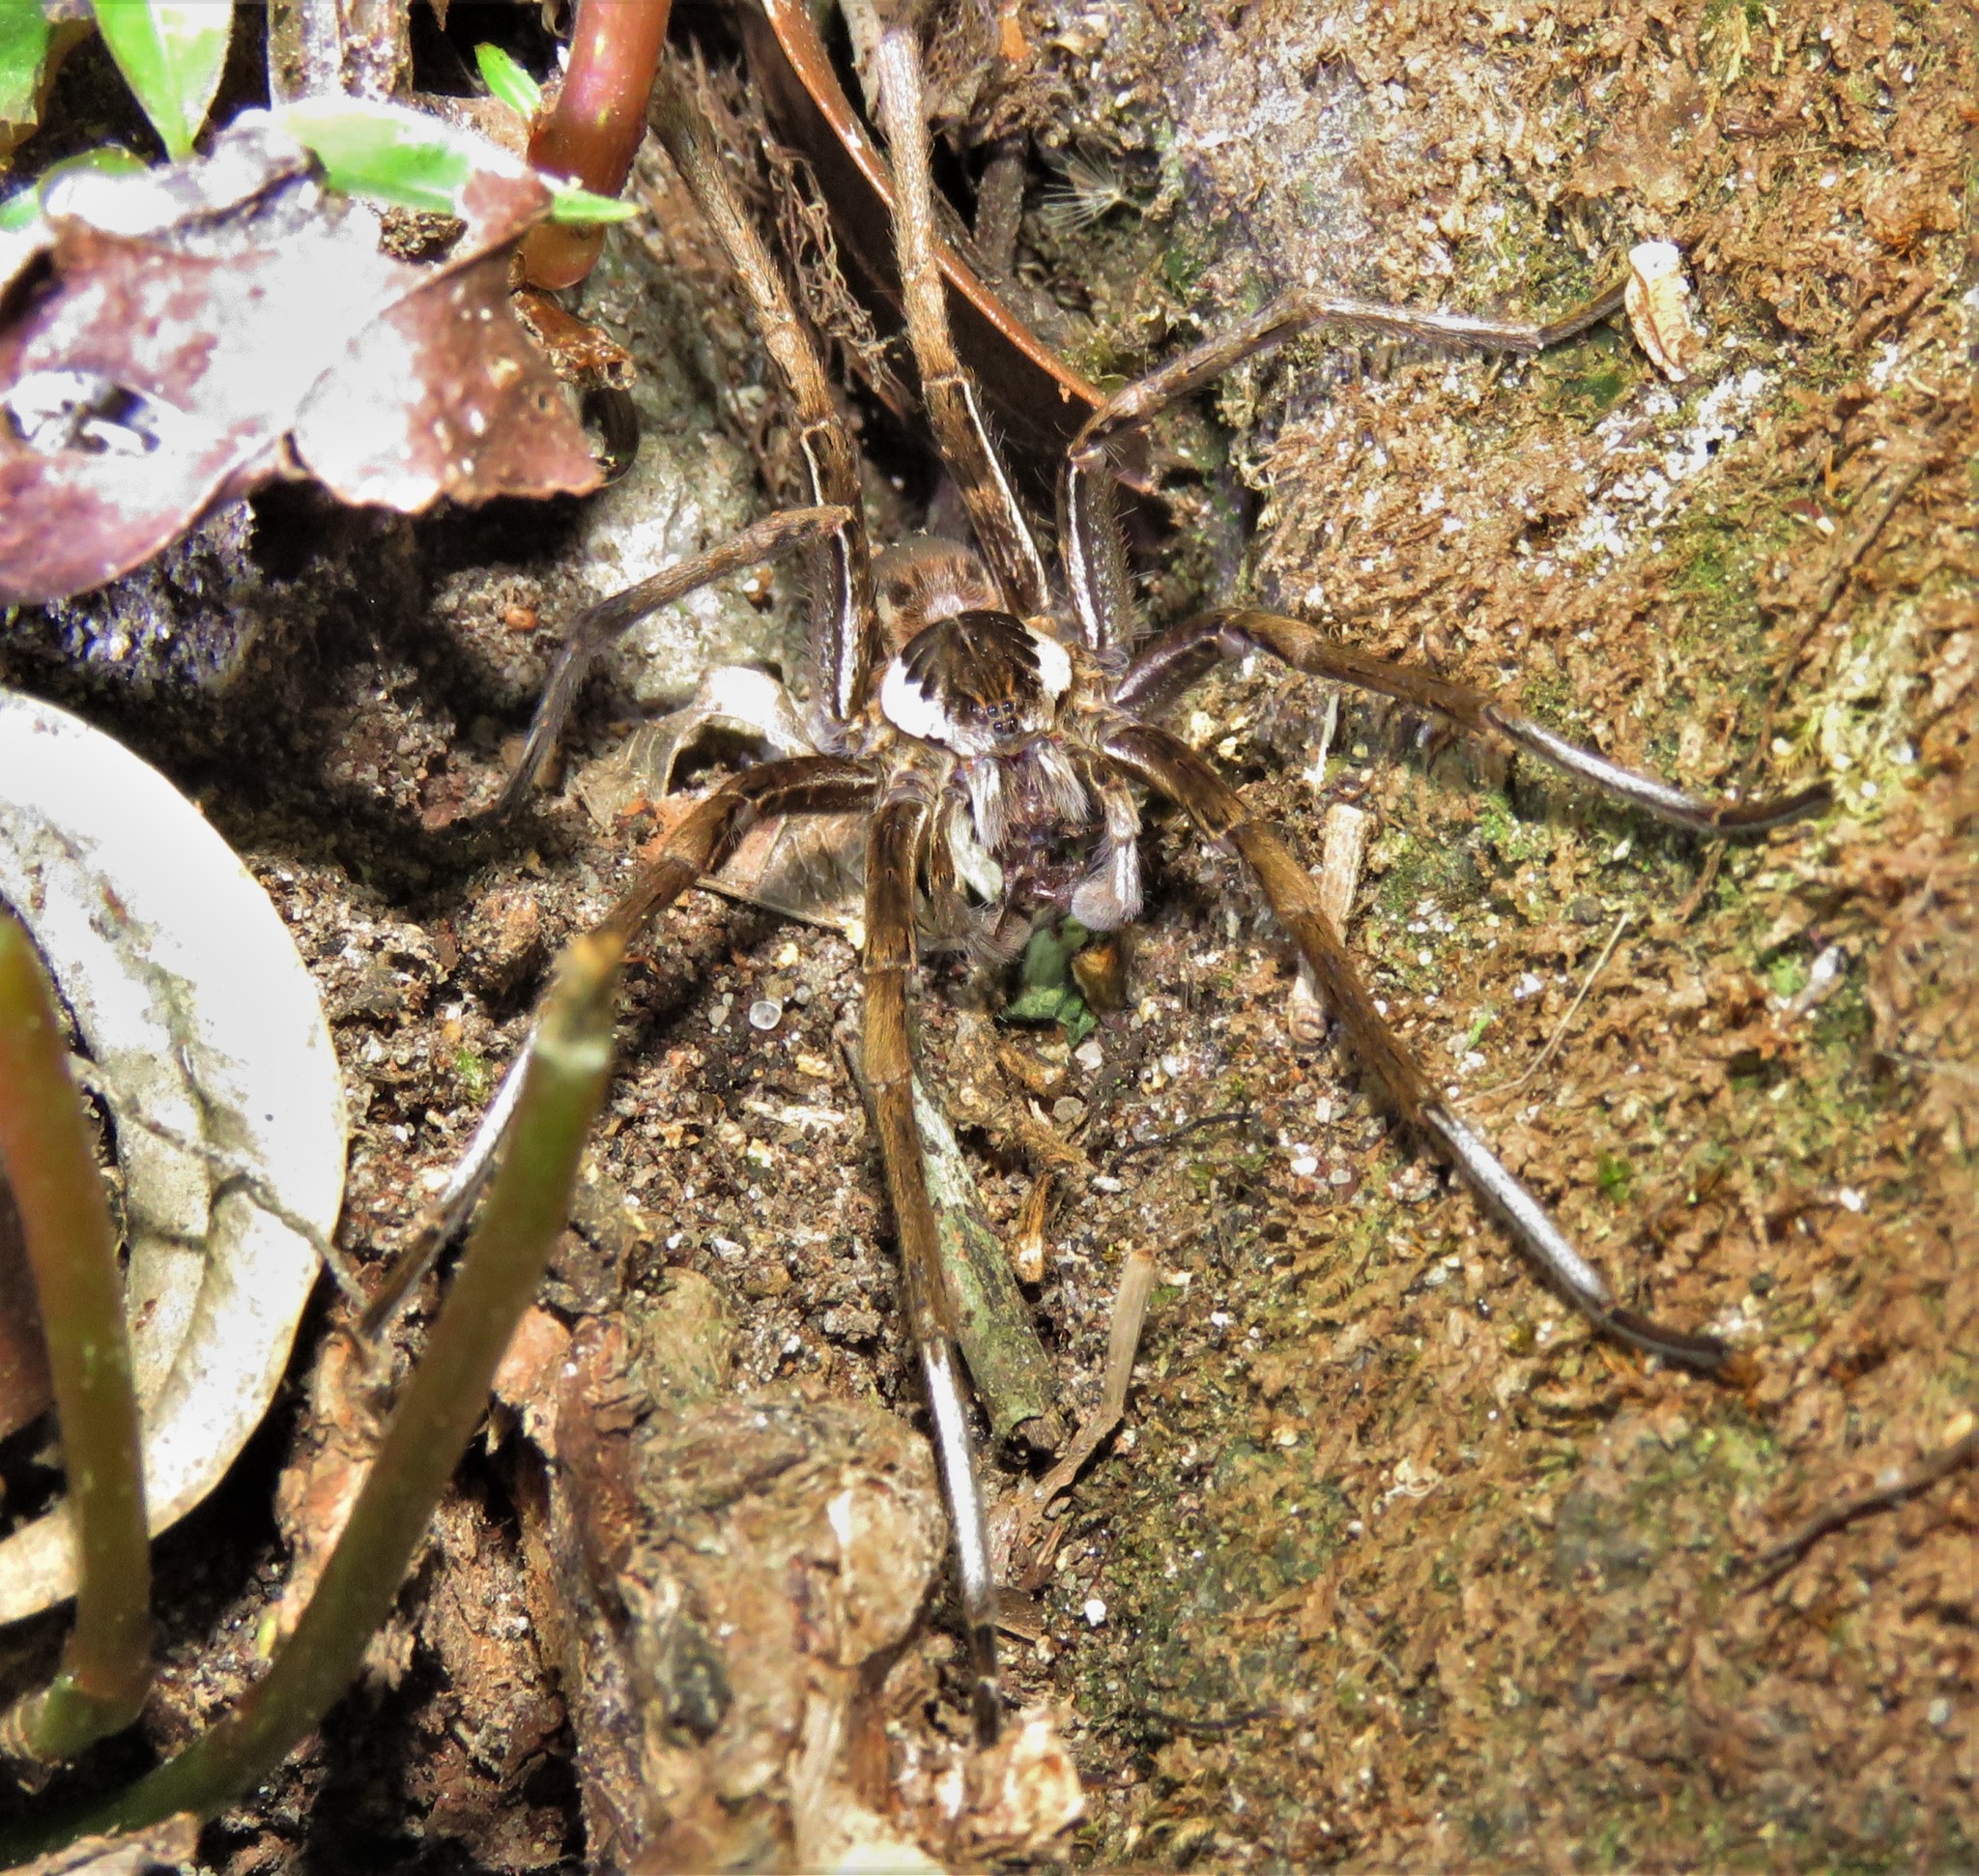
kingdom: Animalia
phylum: Arthropoda
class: Arachnida
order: Araneae
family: Ctenidae
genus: Ancylometes
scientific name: Ancylometes bogotensis
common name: Wandering spiders
